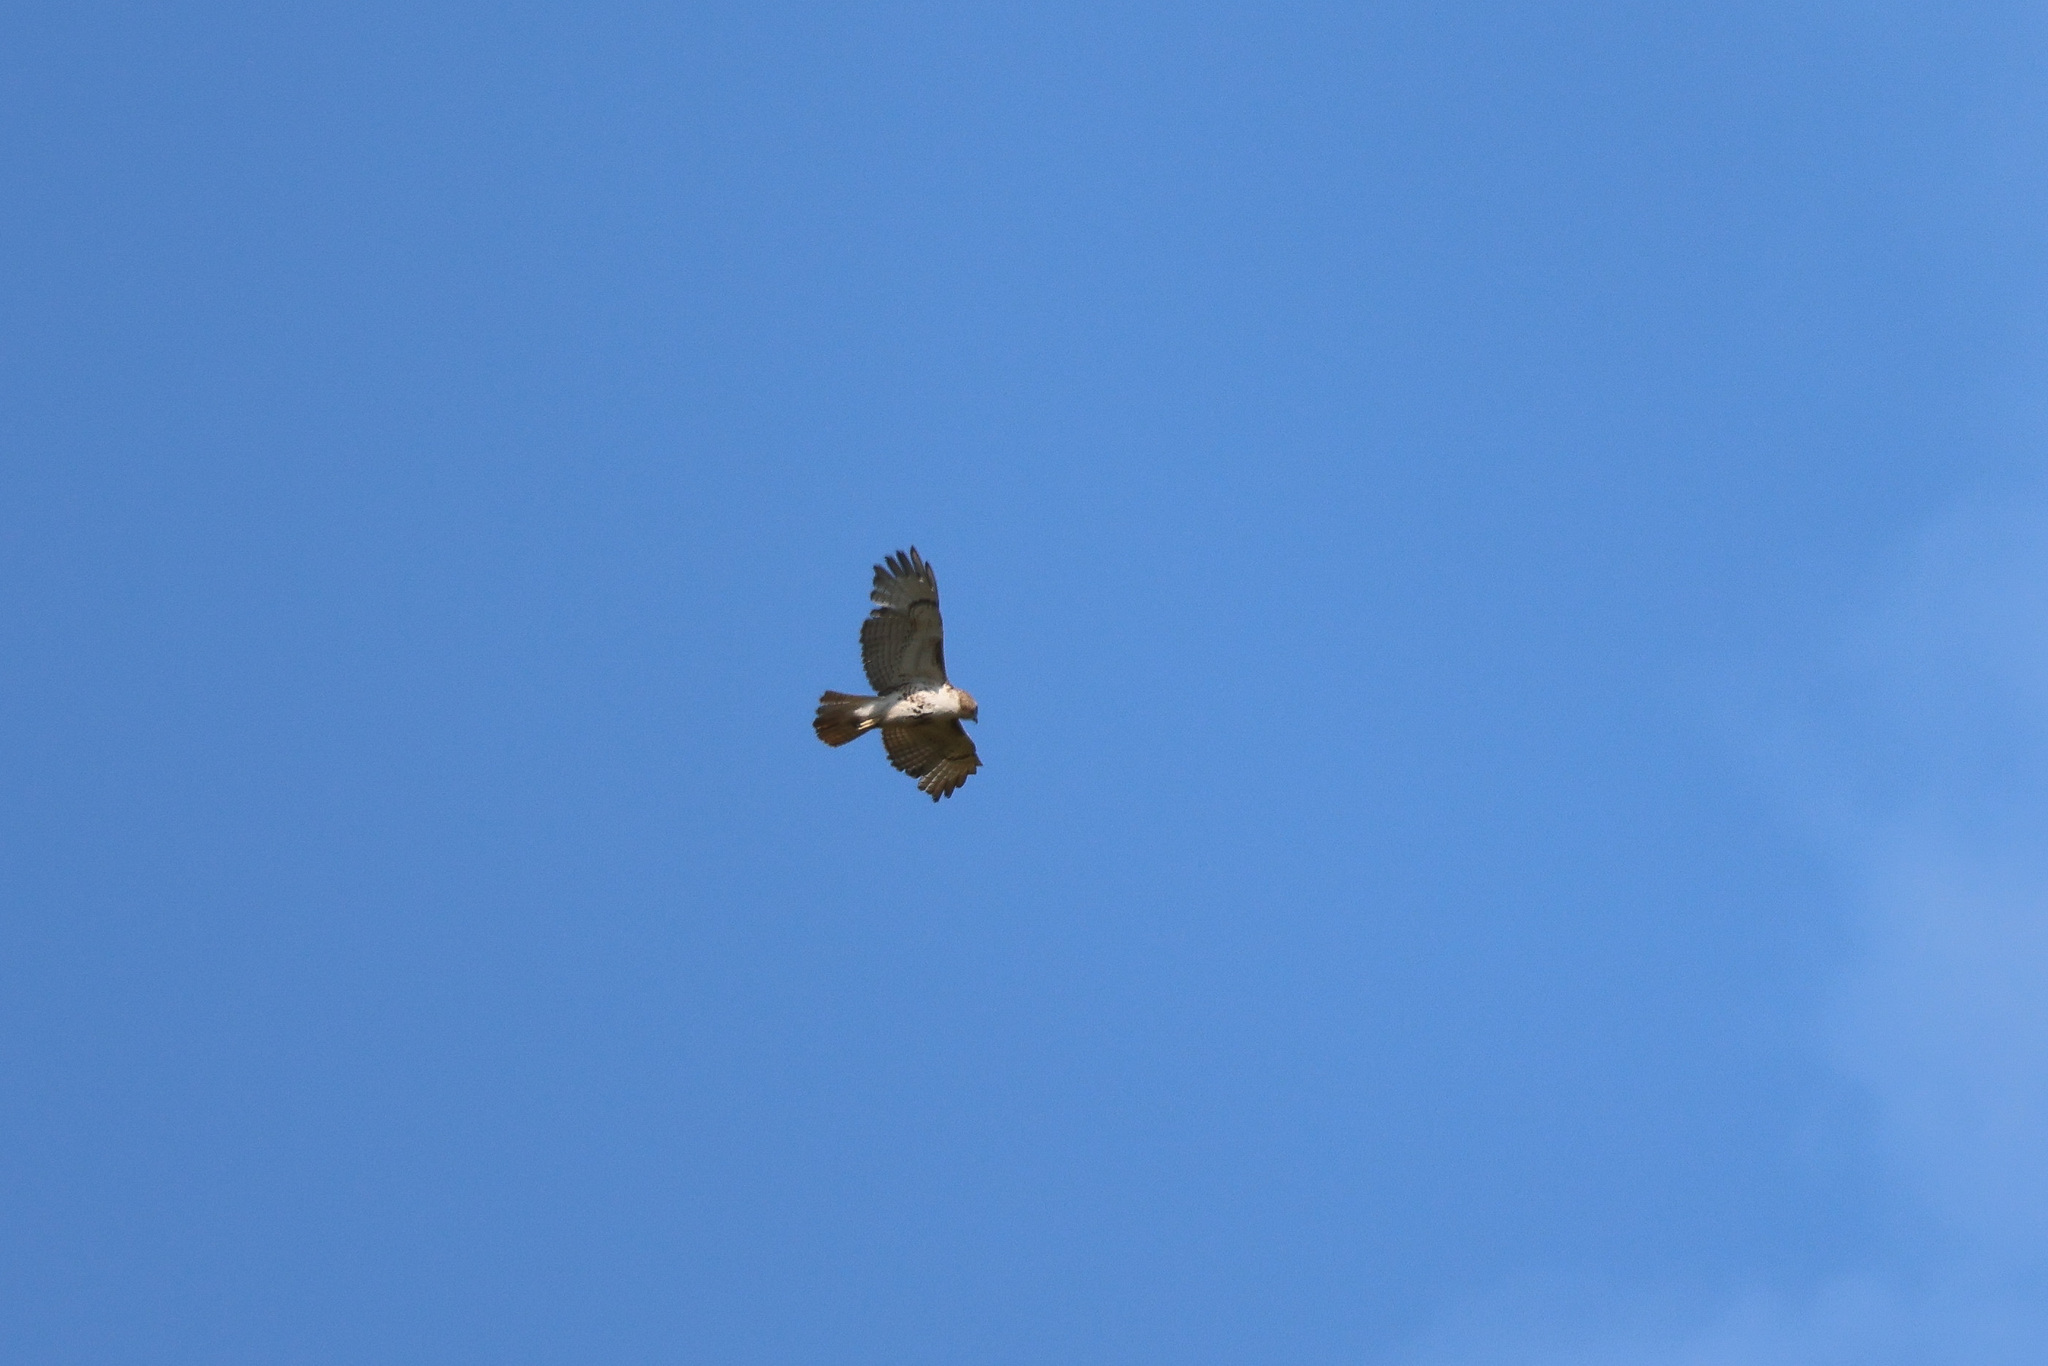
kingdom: Animalia
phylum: Chordata
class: Aves
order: Accipitriformes
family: Accipitridae
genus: Buteo
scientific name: Buteo jamaicensis
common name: Red-tailed hawk
